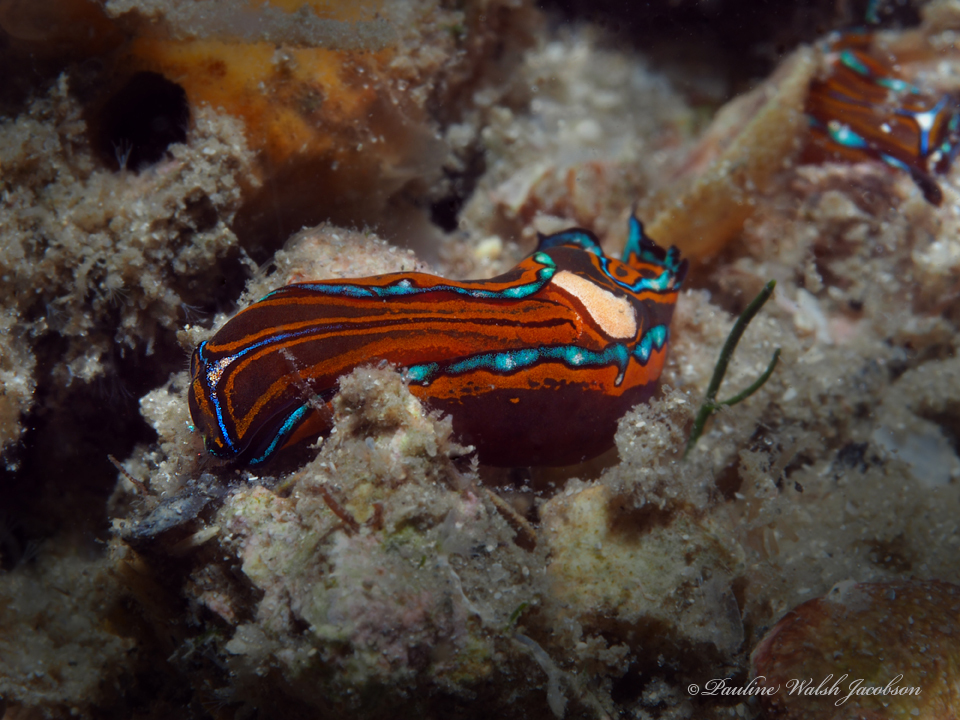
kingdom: Animalia
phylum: Mollusca
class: Gastropoda
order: Cephalaspidea
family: Aglajidae
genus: Chelidonura
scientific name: Chelidonura hirundinina
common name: Leech headshield slug
